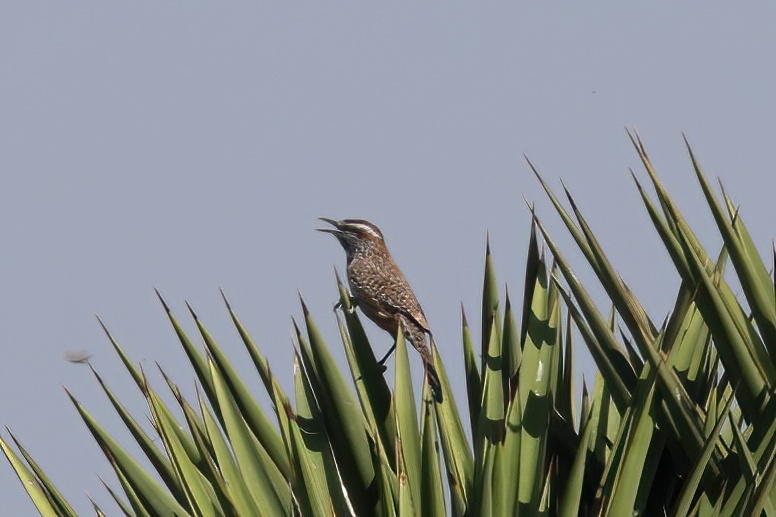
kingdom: Animalia
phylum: Chordata
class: Aves
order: Passeriformes
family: Troglodytidae
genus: Campylorhynchus
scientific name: Campylorhynchus brunneicapillus
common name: Cactus wren
